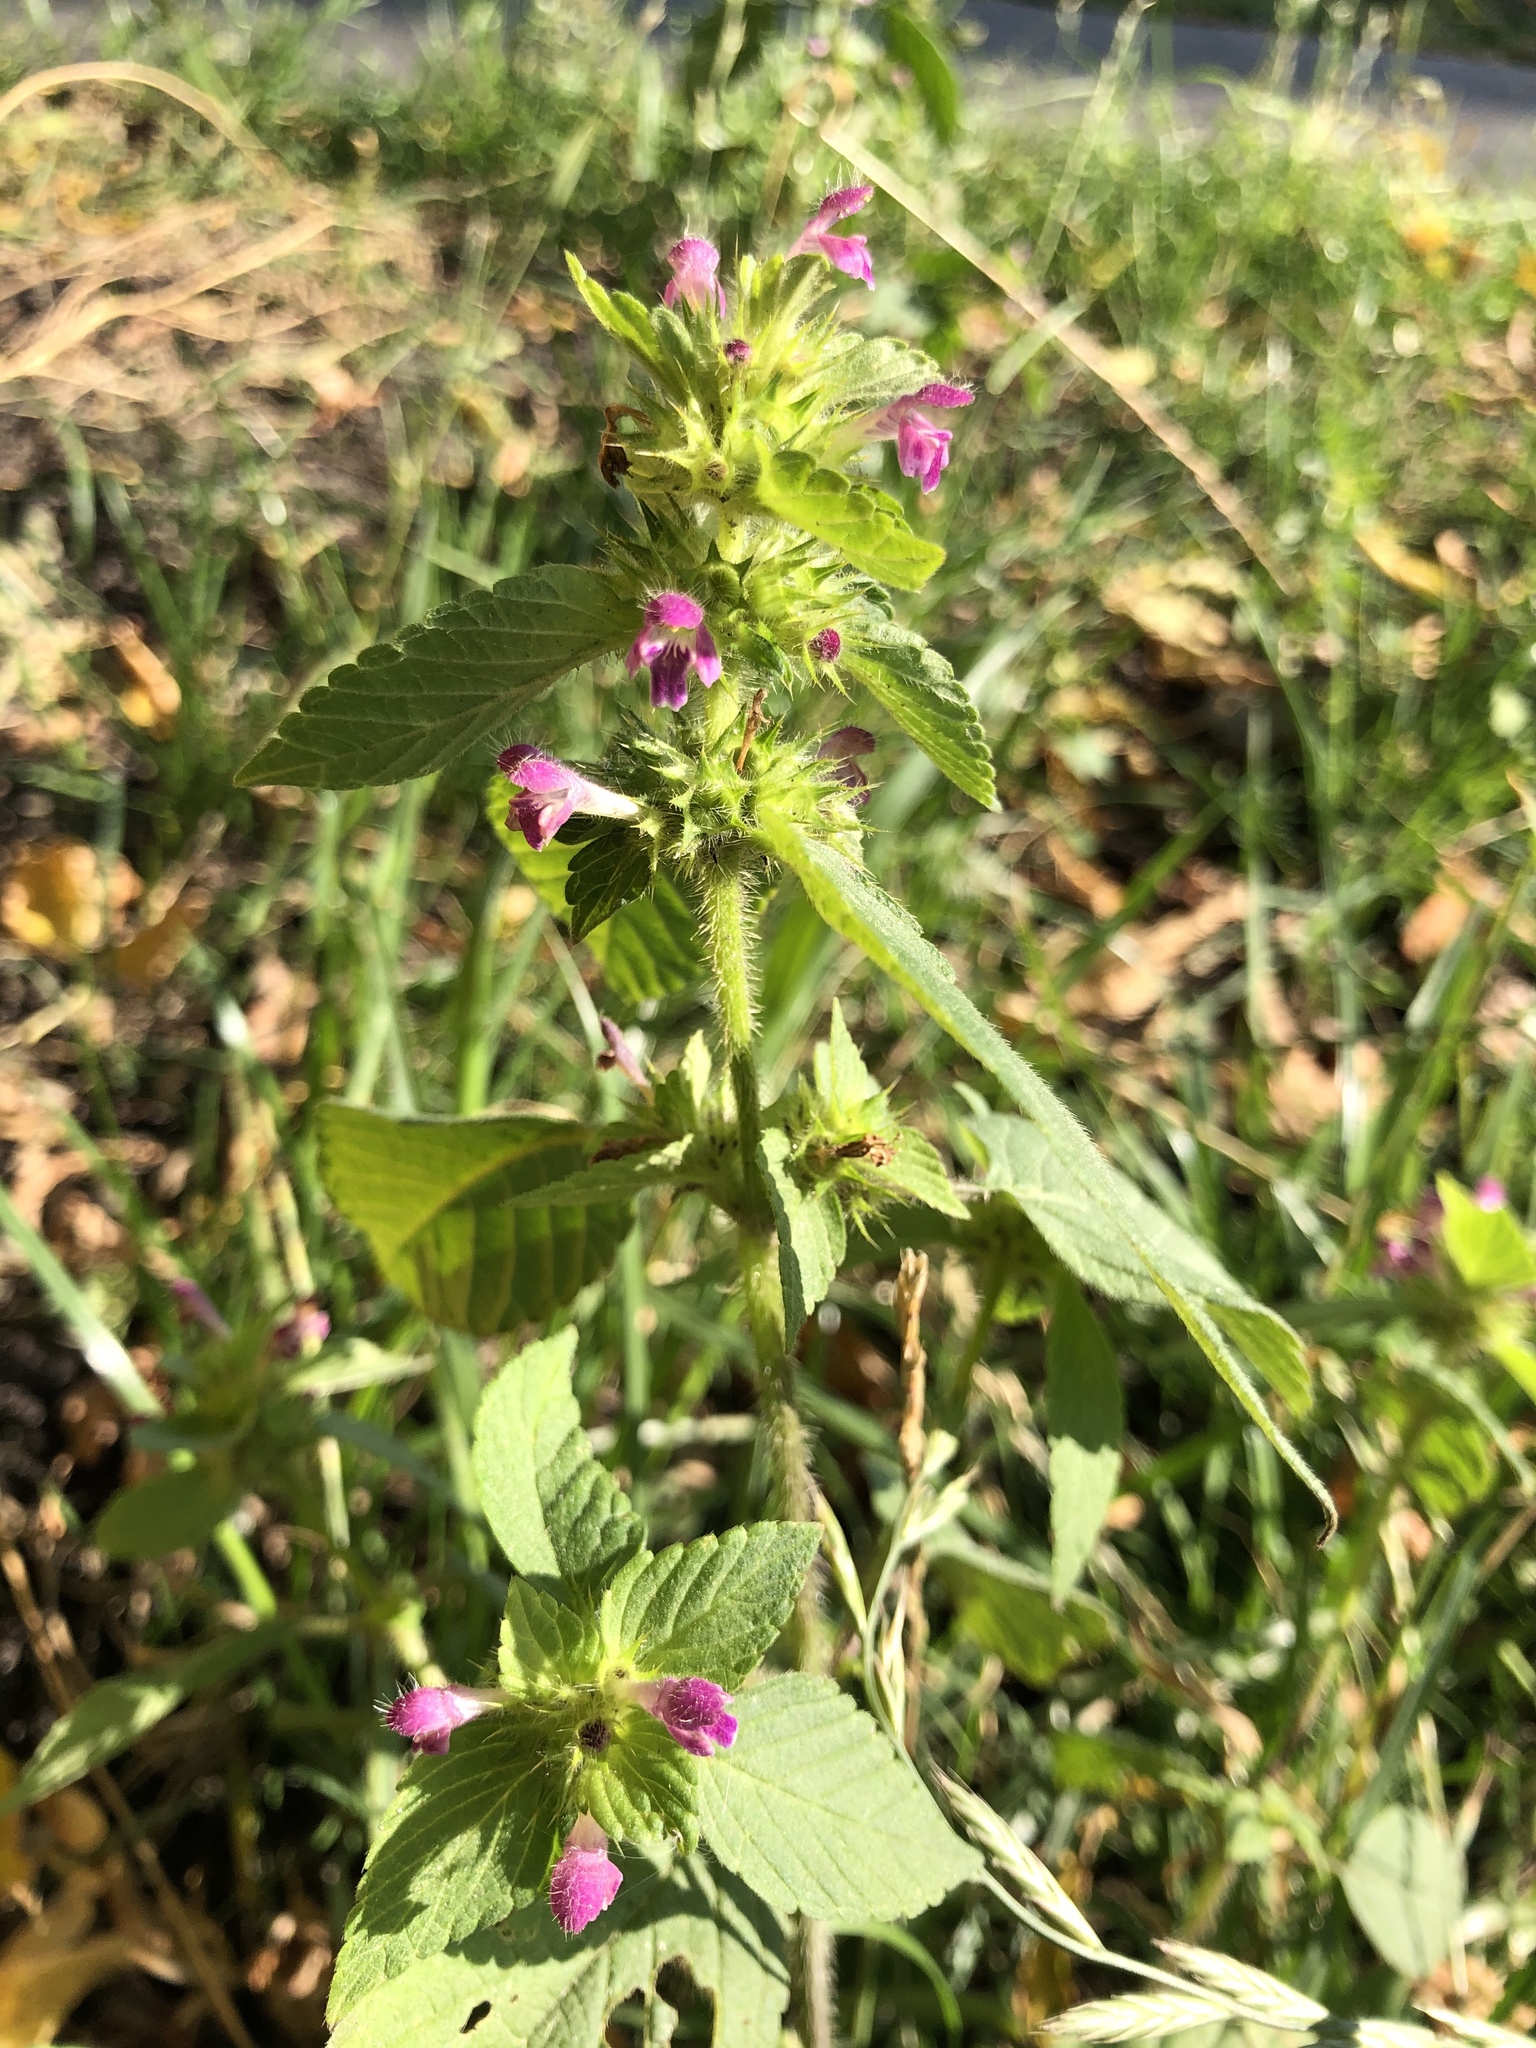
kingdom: Plantae
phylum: Tracheophyta
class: Magnoliopsida
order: Lamiales
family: Lamiaceae
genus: Galeopsis
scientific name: Galeopsis bifida
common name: Bifid hemp-nettle
